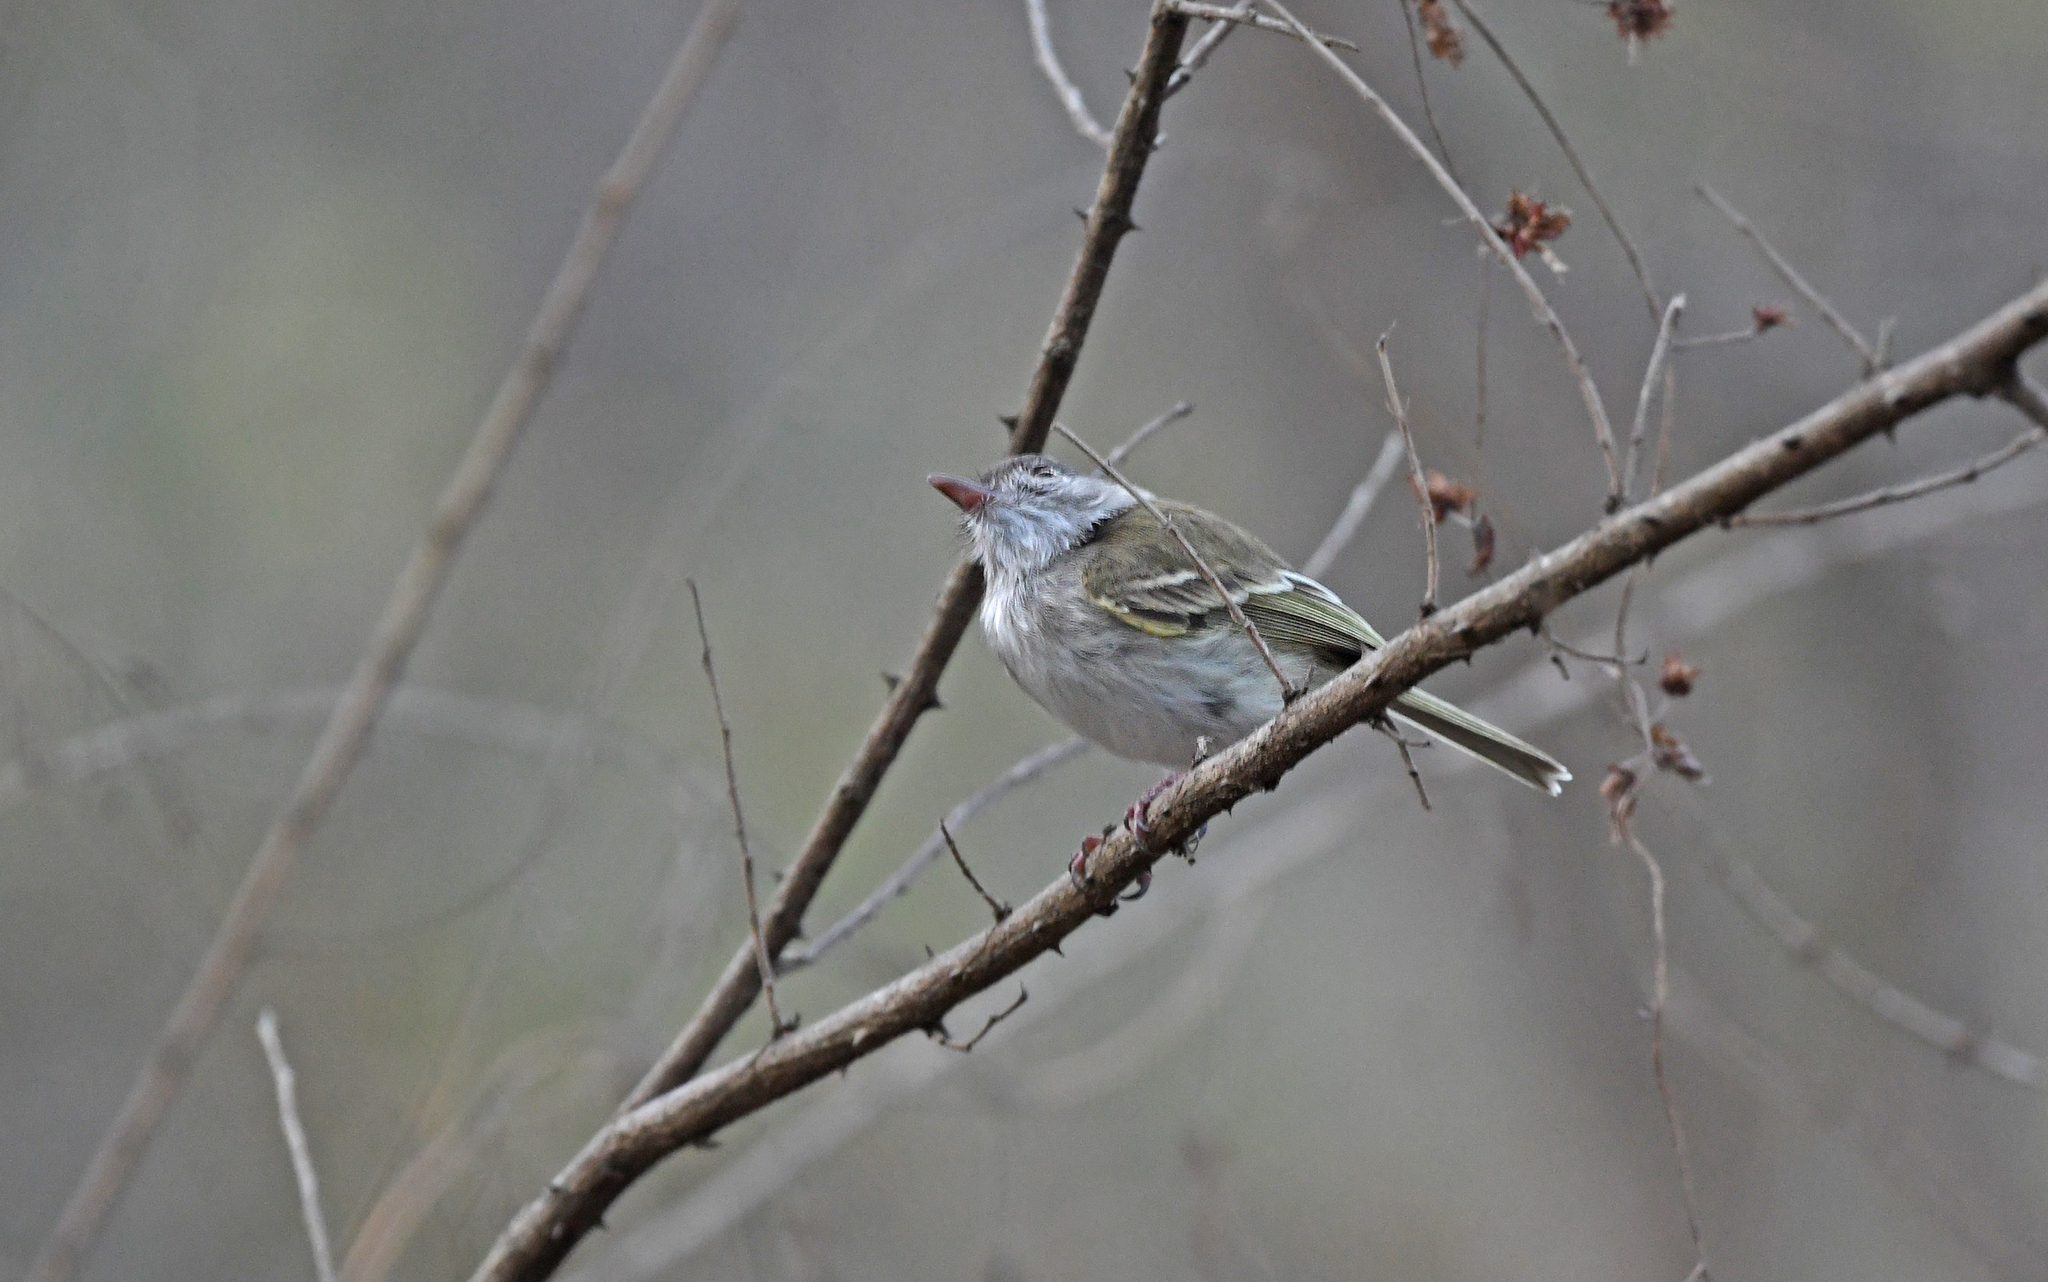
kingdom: Animalia
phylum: Chordata
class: Aves
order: Passeriformes
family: Tyrannidae
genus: Hemitriccus
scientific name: Hemitriccus margaritaceiventer
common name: Pearly-vented tody-tyrant
